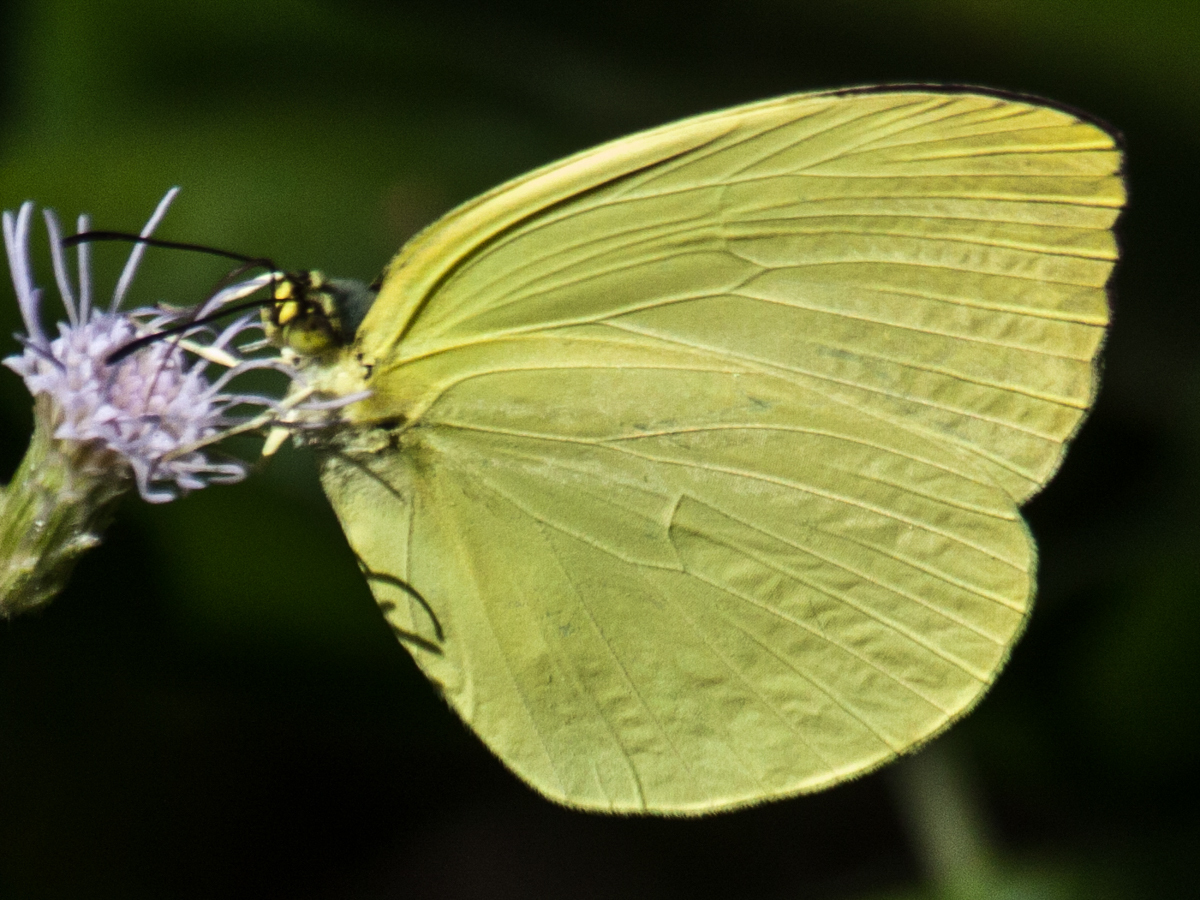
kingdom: Animalia
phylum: Arthropoda
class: Insecta
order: Lepidoptera
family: Pieridae
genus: Gandaca
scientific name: Gandaca harina
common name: Tree yellow
